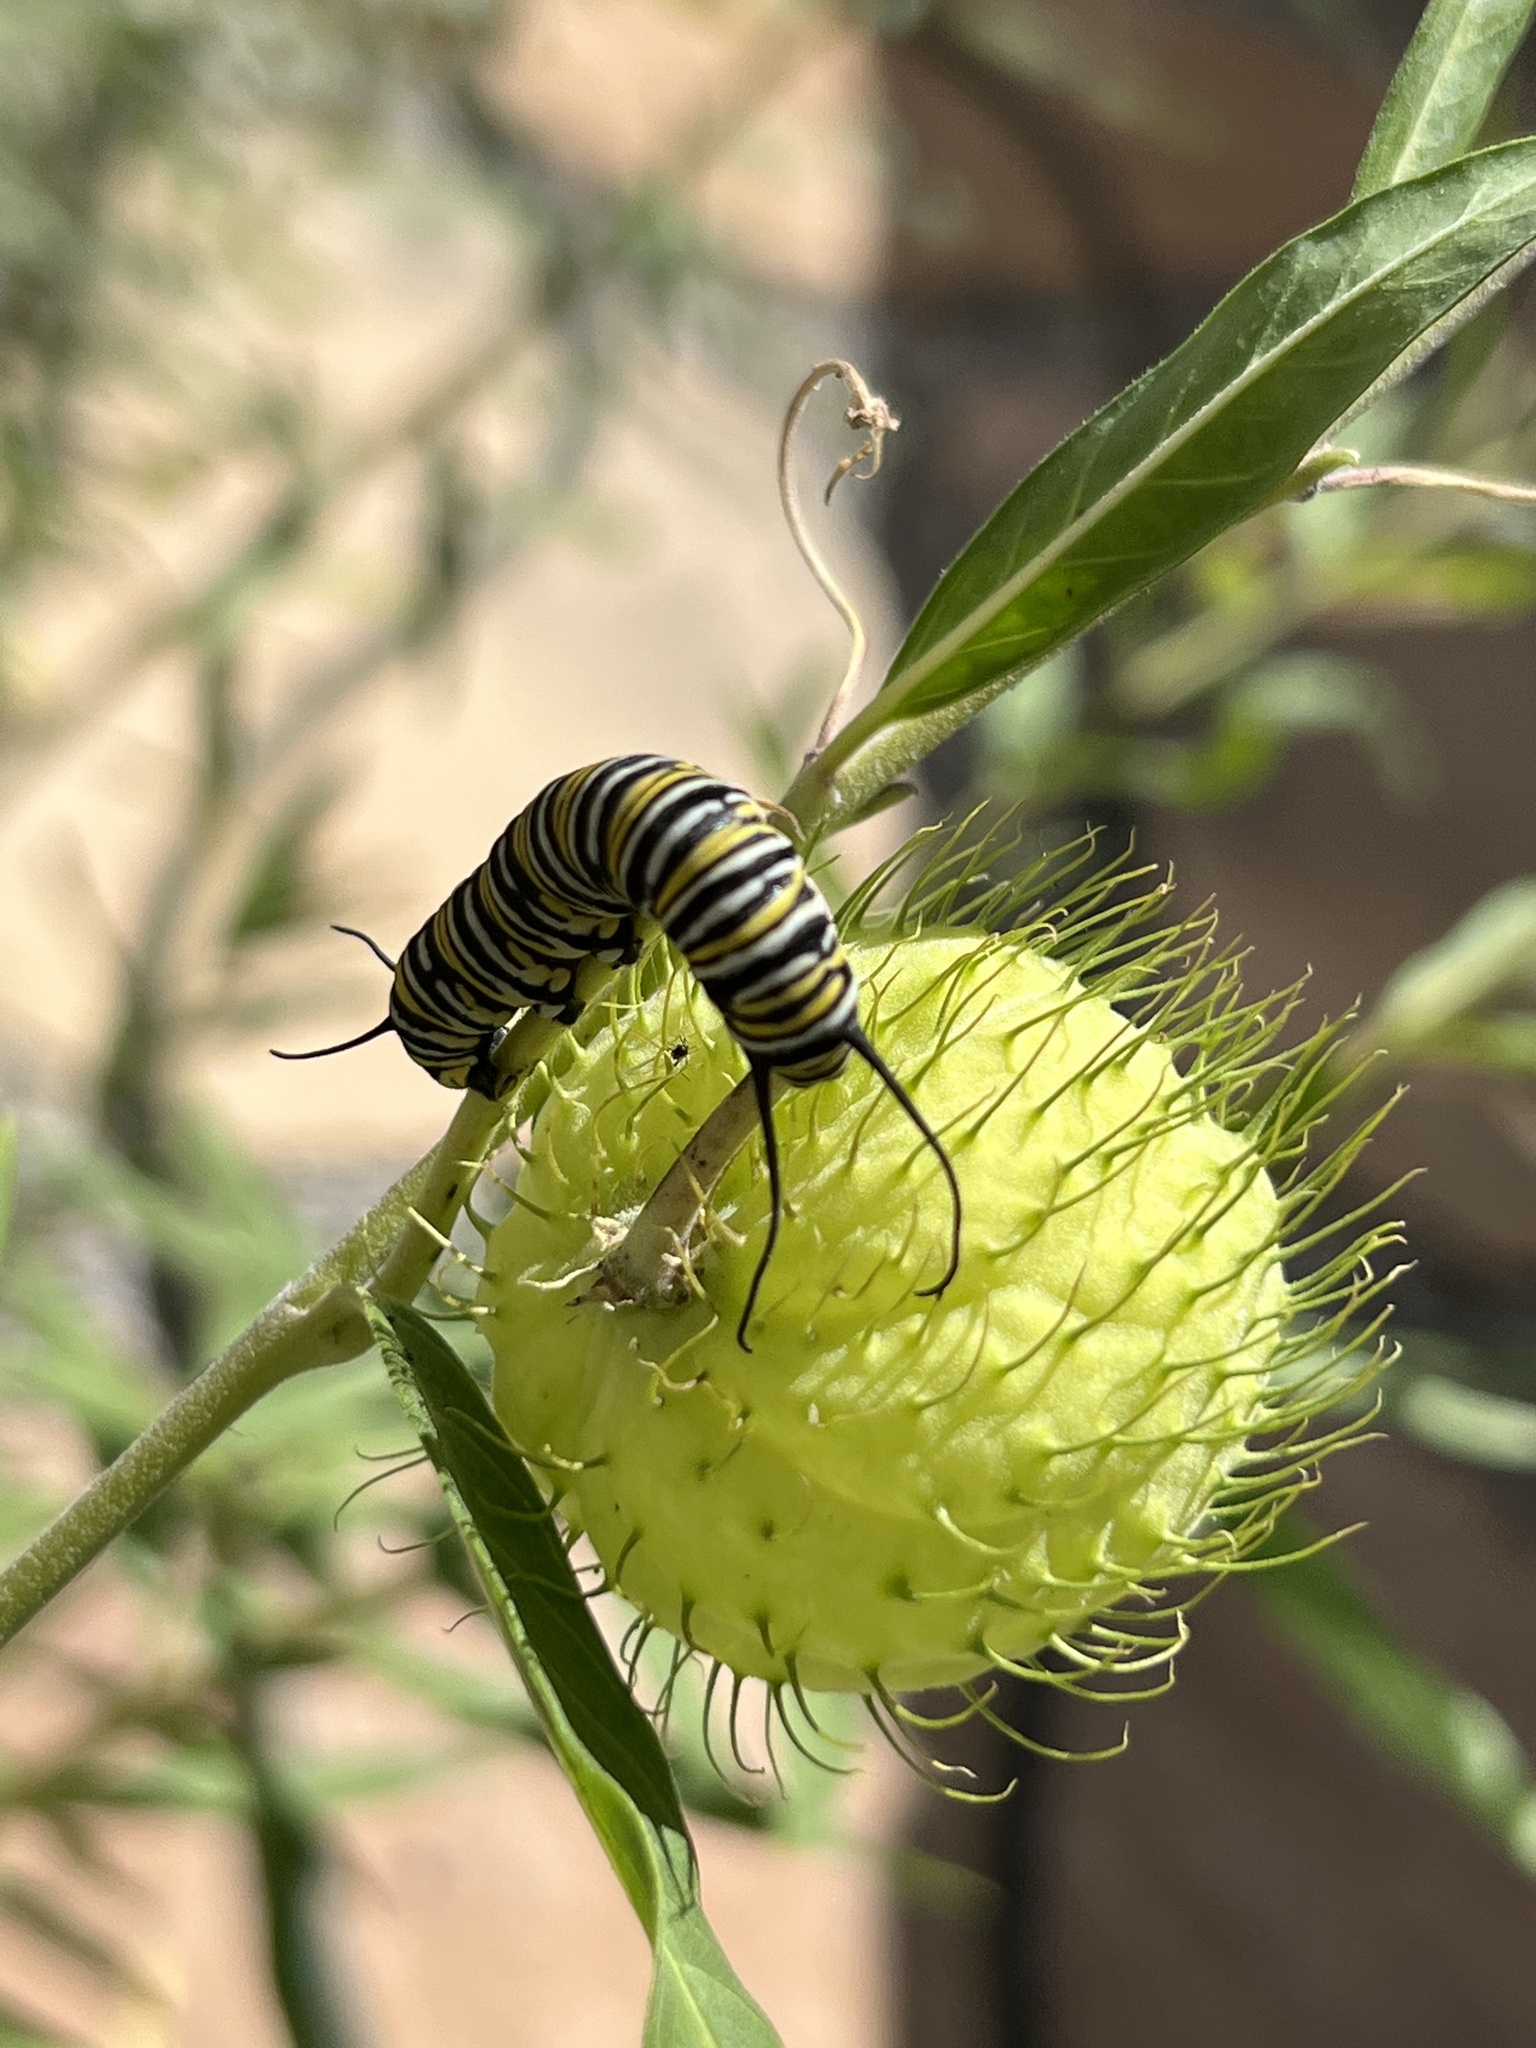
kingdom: Animalia
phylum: Arthropoda
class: Insecta
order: Lepidoptera
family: Nymphalidae
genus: Danaus
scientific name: Danaus plexippus
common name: Monarch
